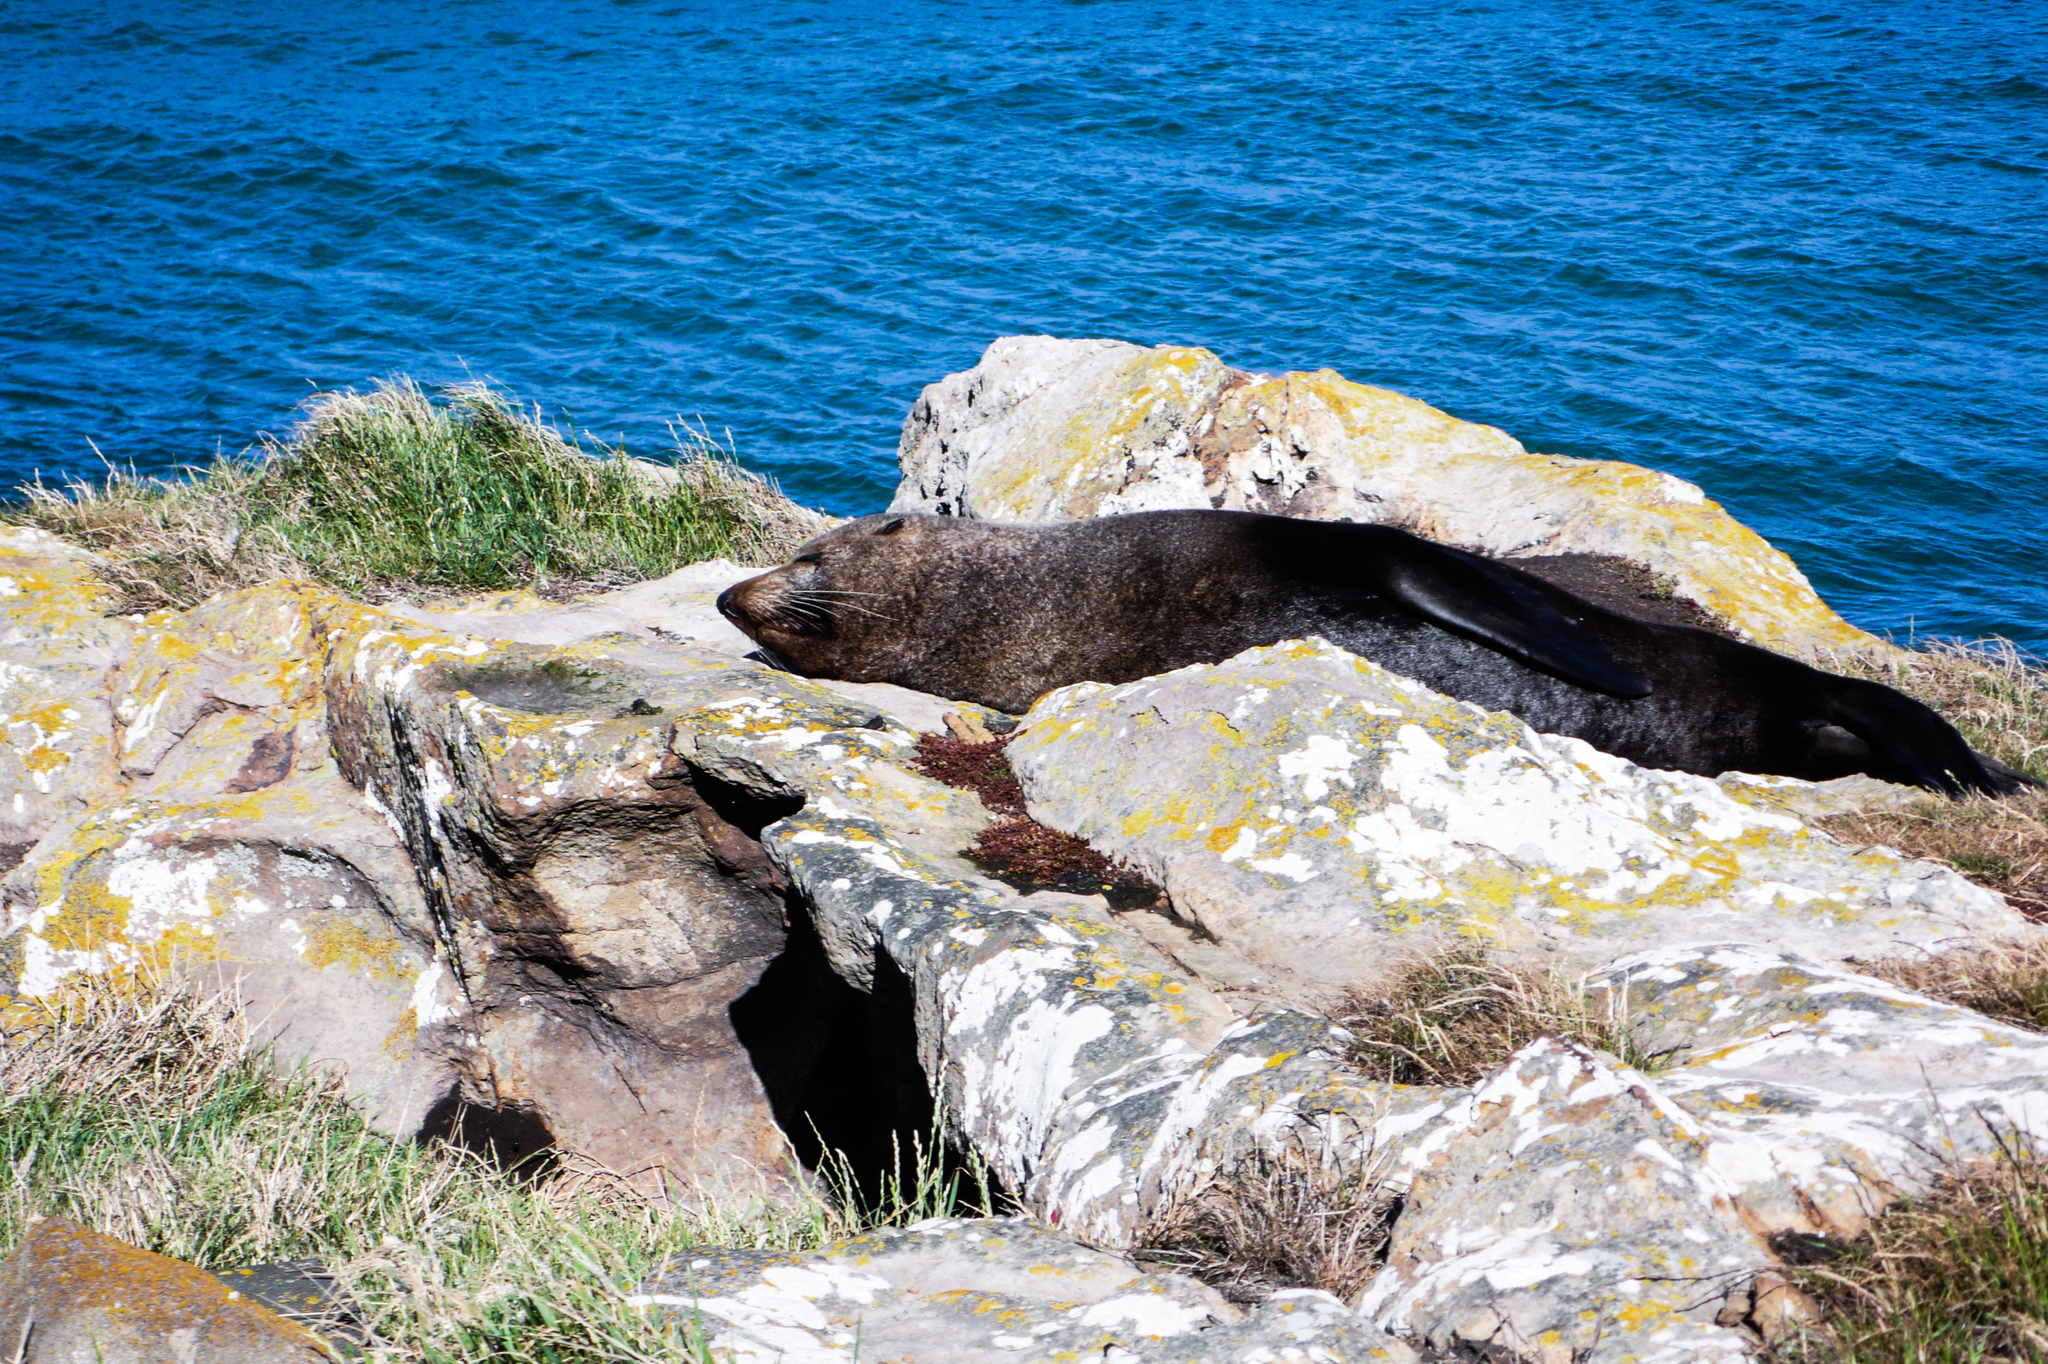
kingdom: Animalia
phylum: Chordata
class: Mammalia
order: Carnivora
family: Otariidae
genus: Arctocephalus
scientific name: Arctocephalus forsteri
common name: New zealand fur seal
